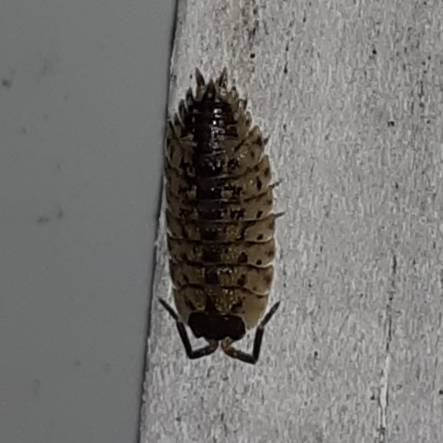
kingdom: Animalia
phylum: Arthropoda
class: Malacostraca
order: Isopoda
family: Porcellionidae
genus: Porcellio
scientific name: Porcellio spinicornis
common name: Painted woodlouse
